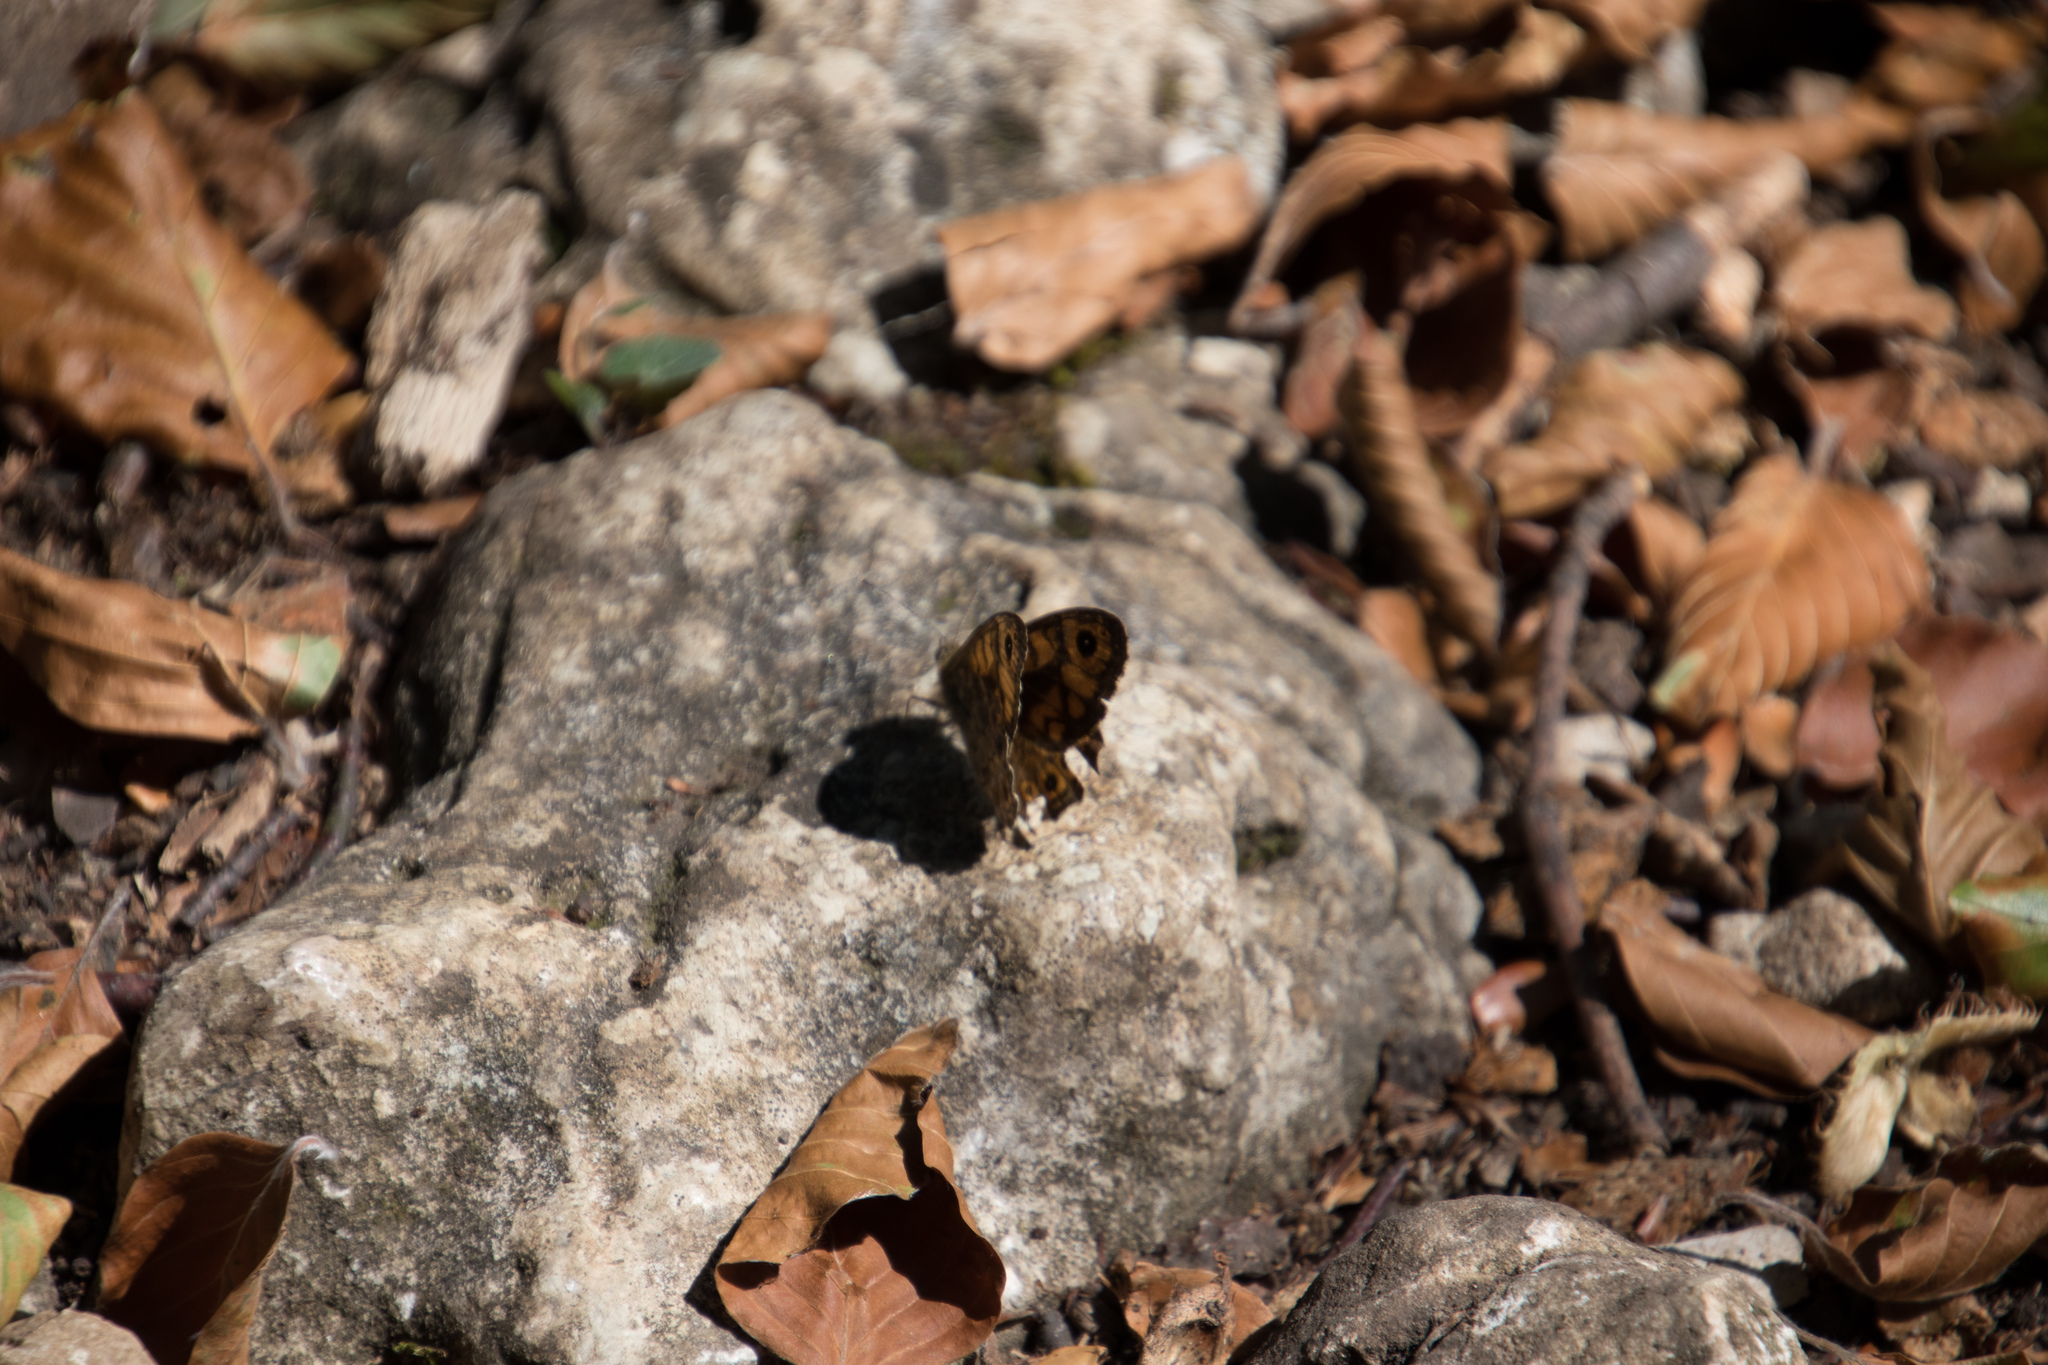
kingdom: Animalia
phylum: Arthropoda
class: Insecta
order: Lepidoptera
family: Nymphalidae
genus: Pararge
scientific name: Pararge Lasiommata megera
